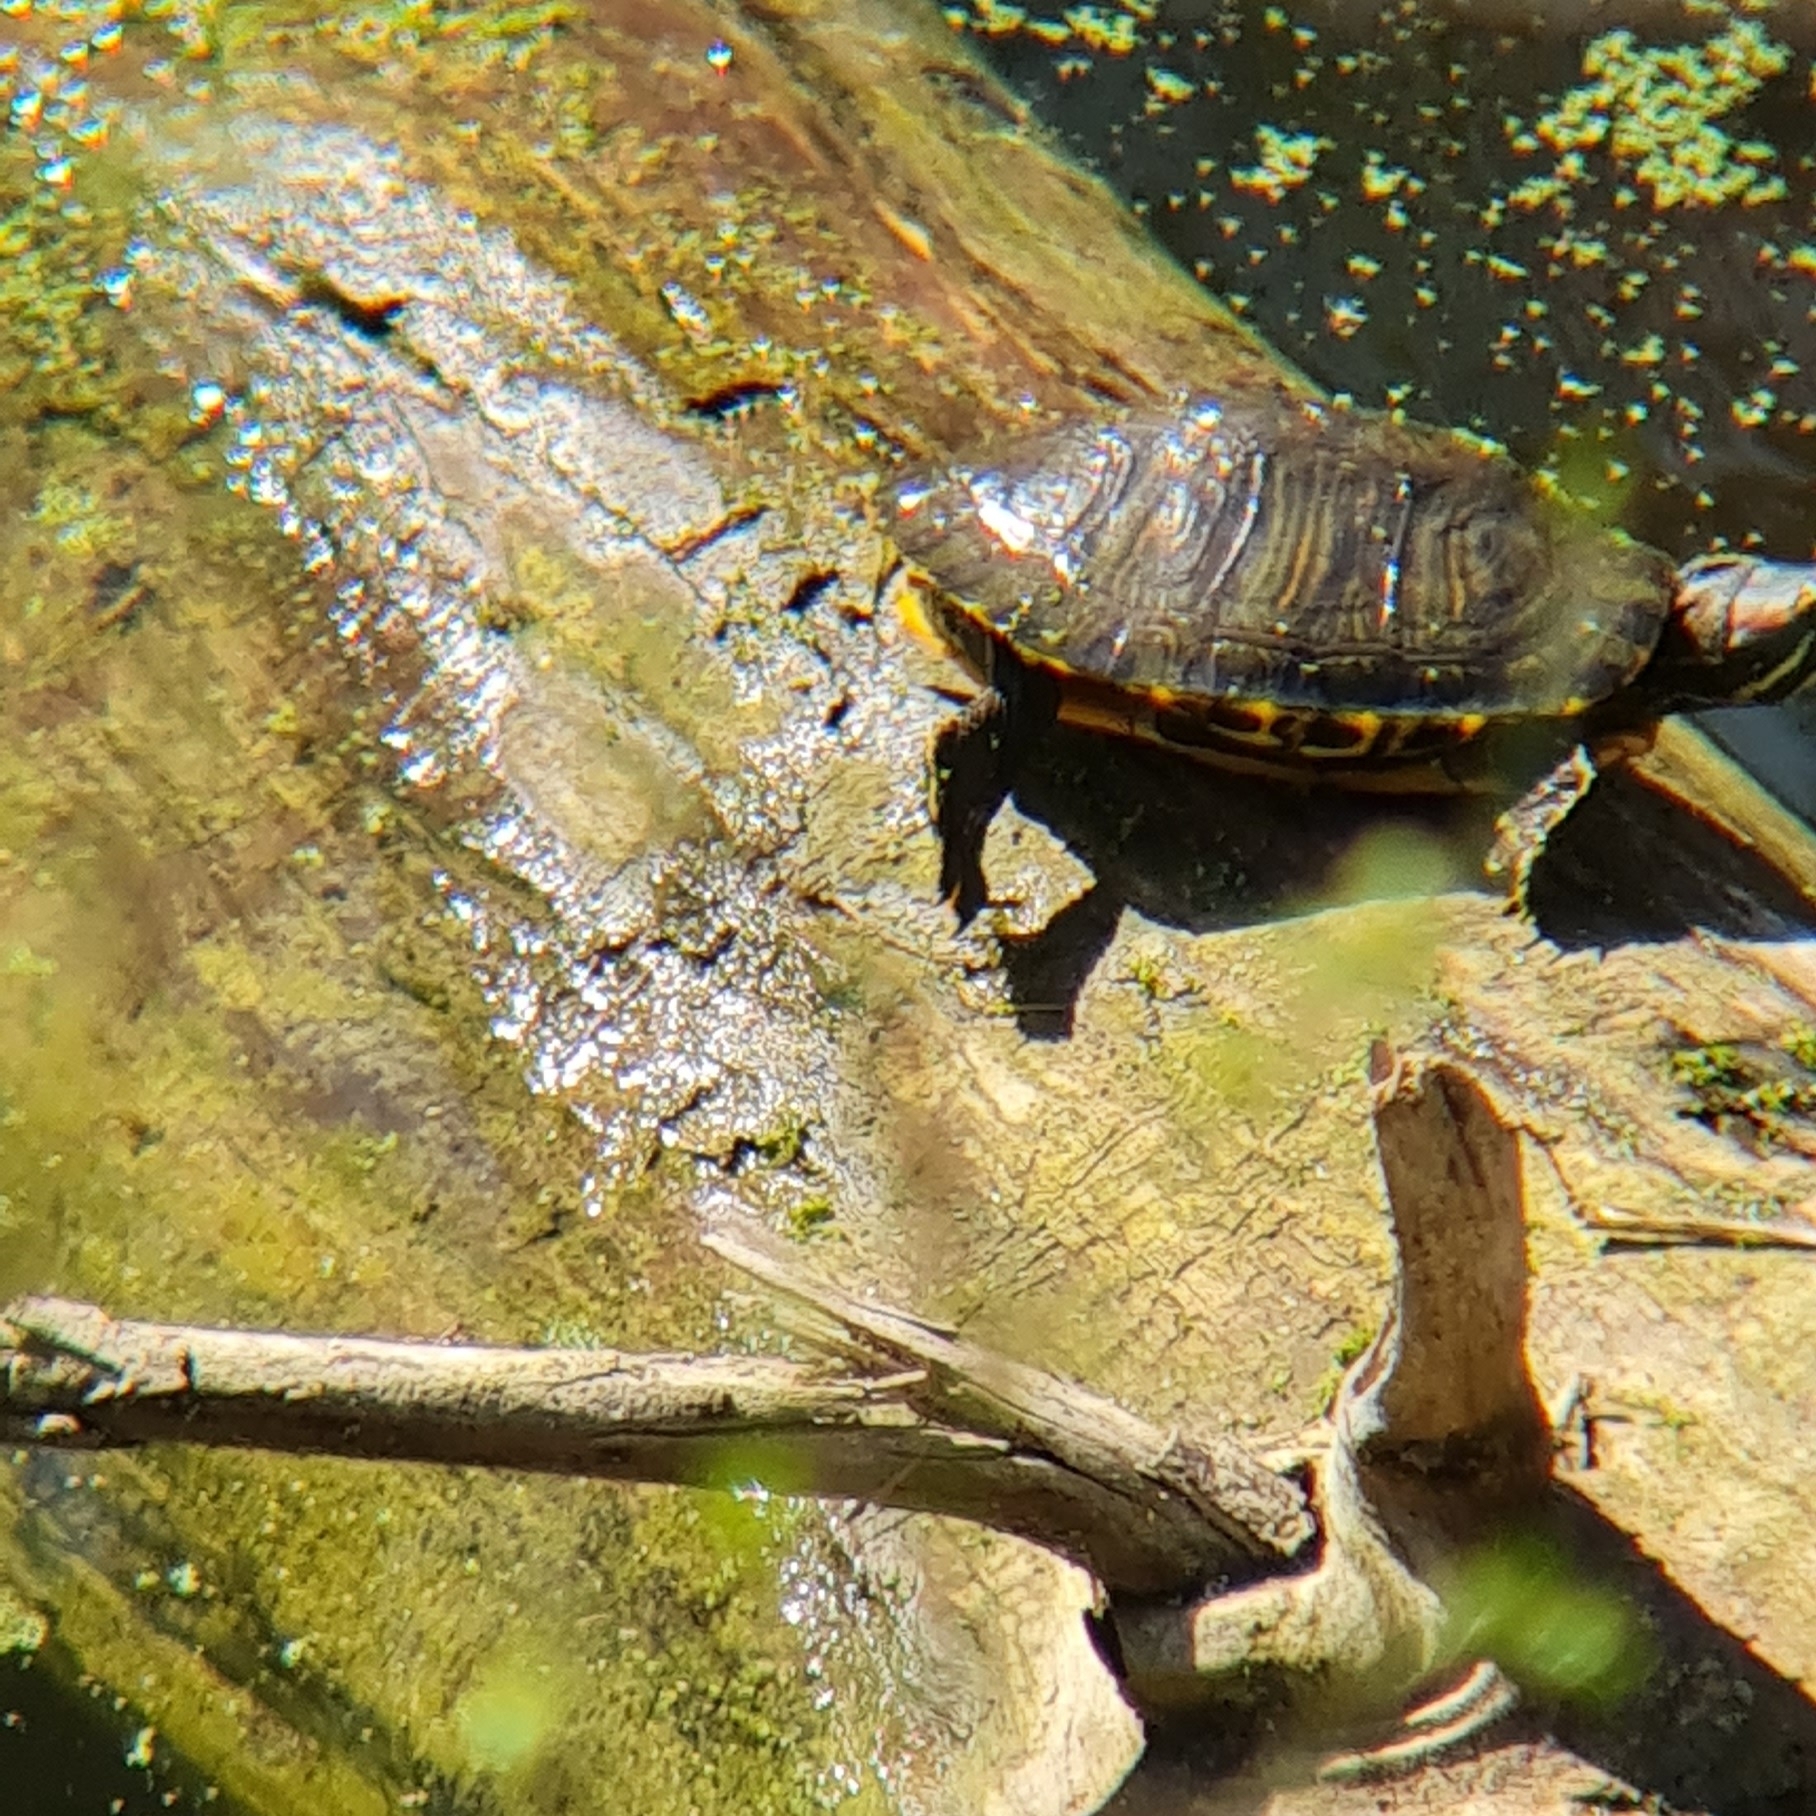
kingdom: Animalia
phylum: Chordata
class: Testudines
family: Emydidae
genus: Trachemys
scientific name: Trachemys scripta
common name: Slider
